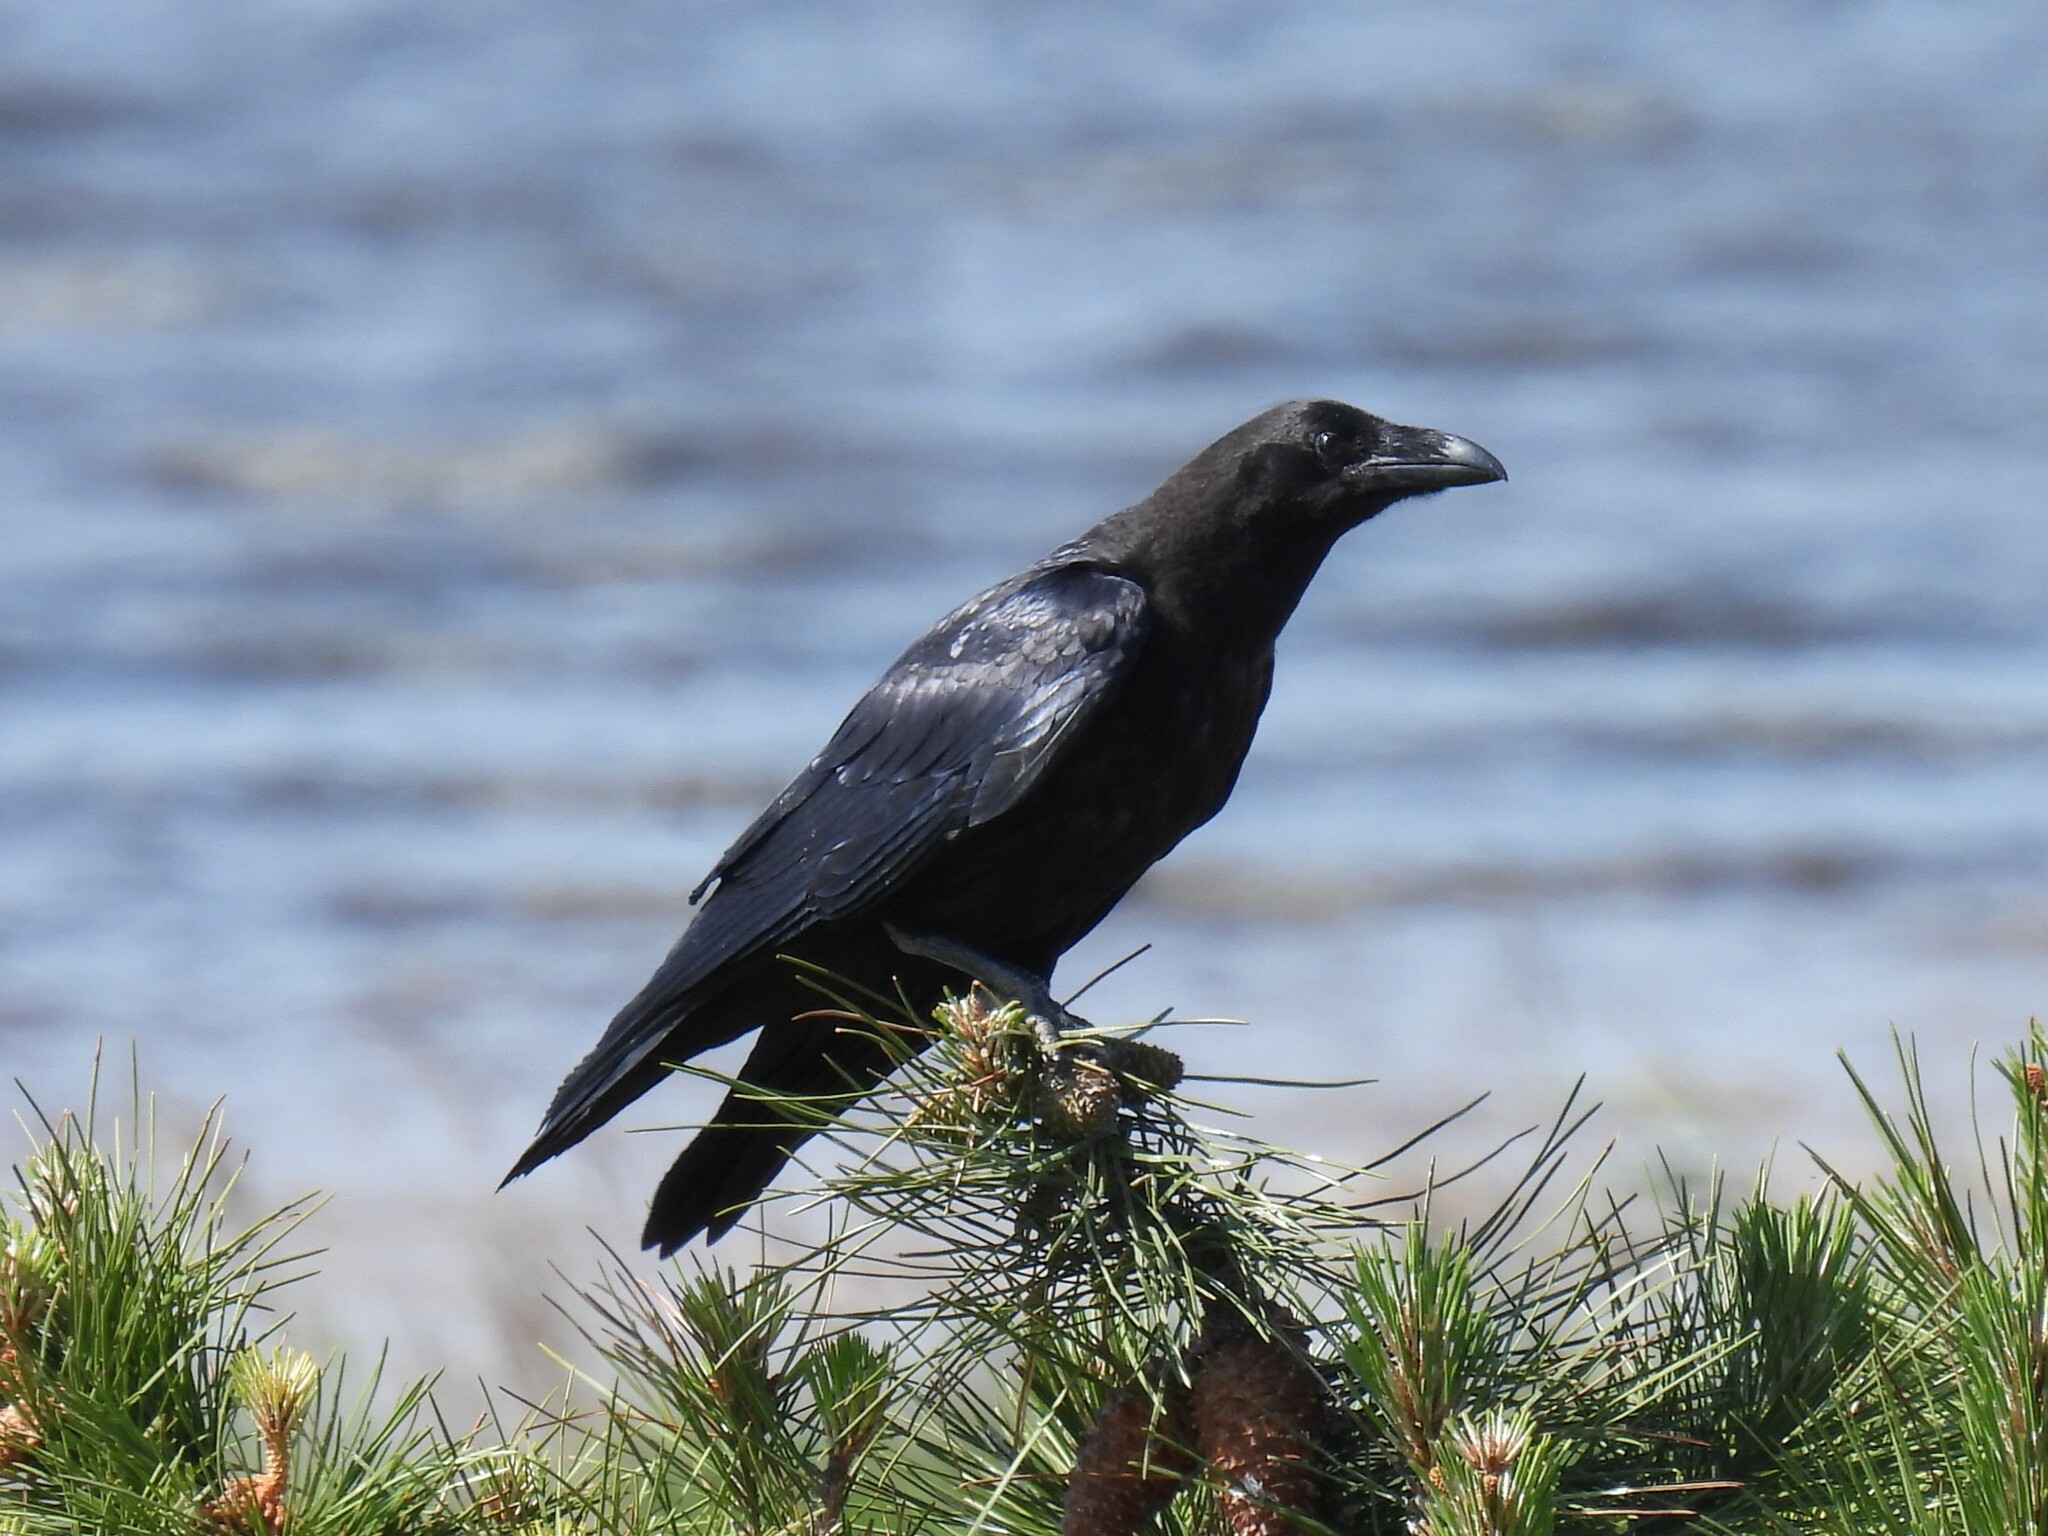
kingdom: Animalia
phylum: Chordata
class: Aves
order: Passeriformes
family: Corvidae
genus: Corvus
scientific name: Corvus corax
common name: Common raven
